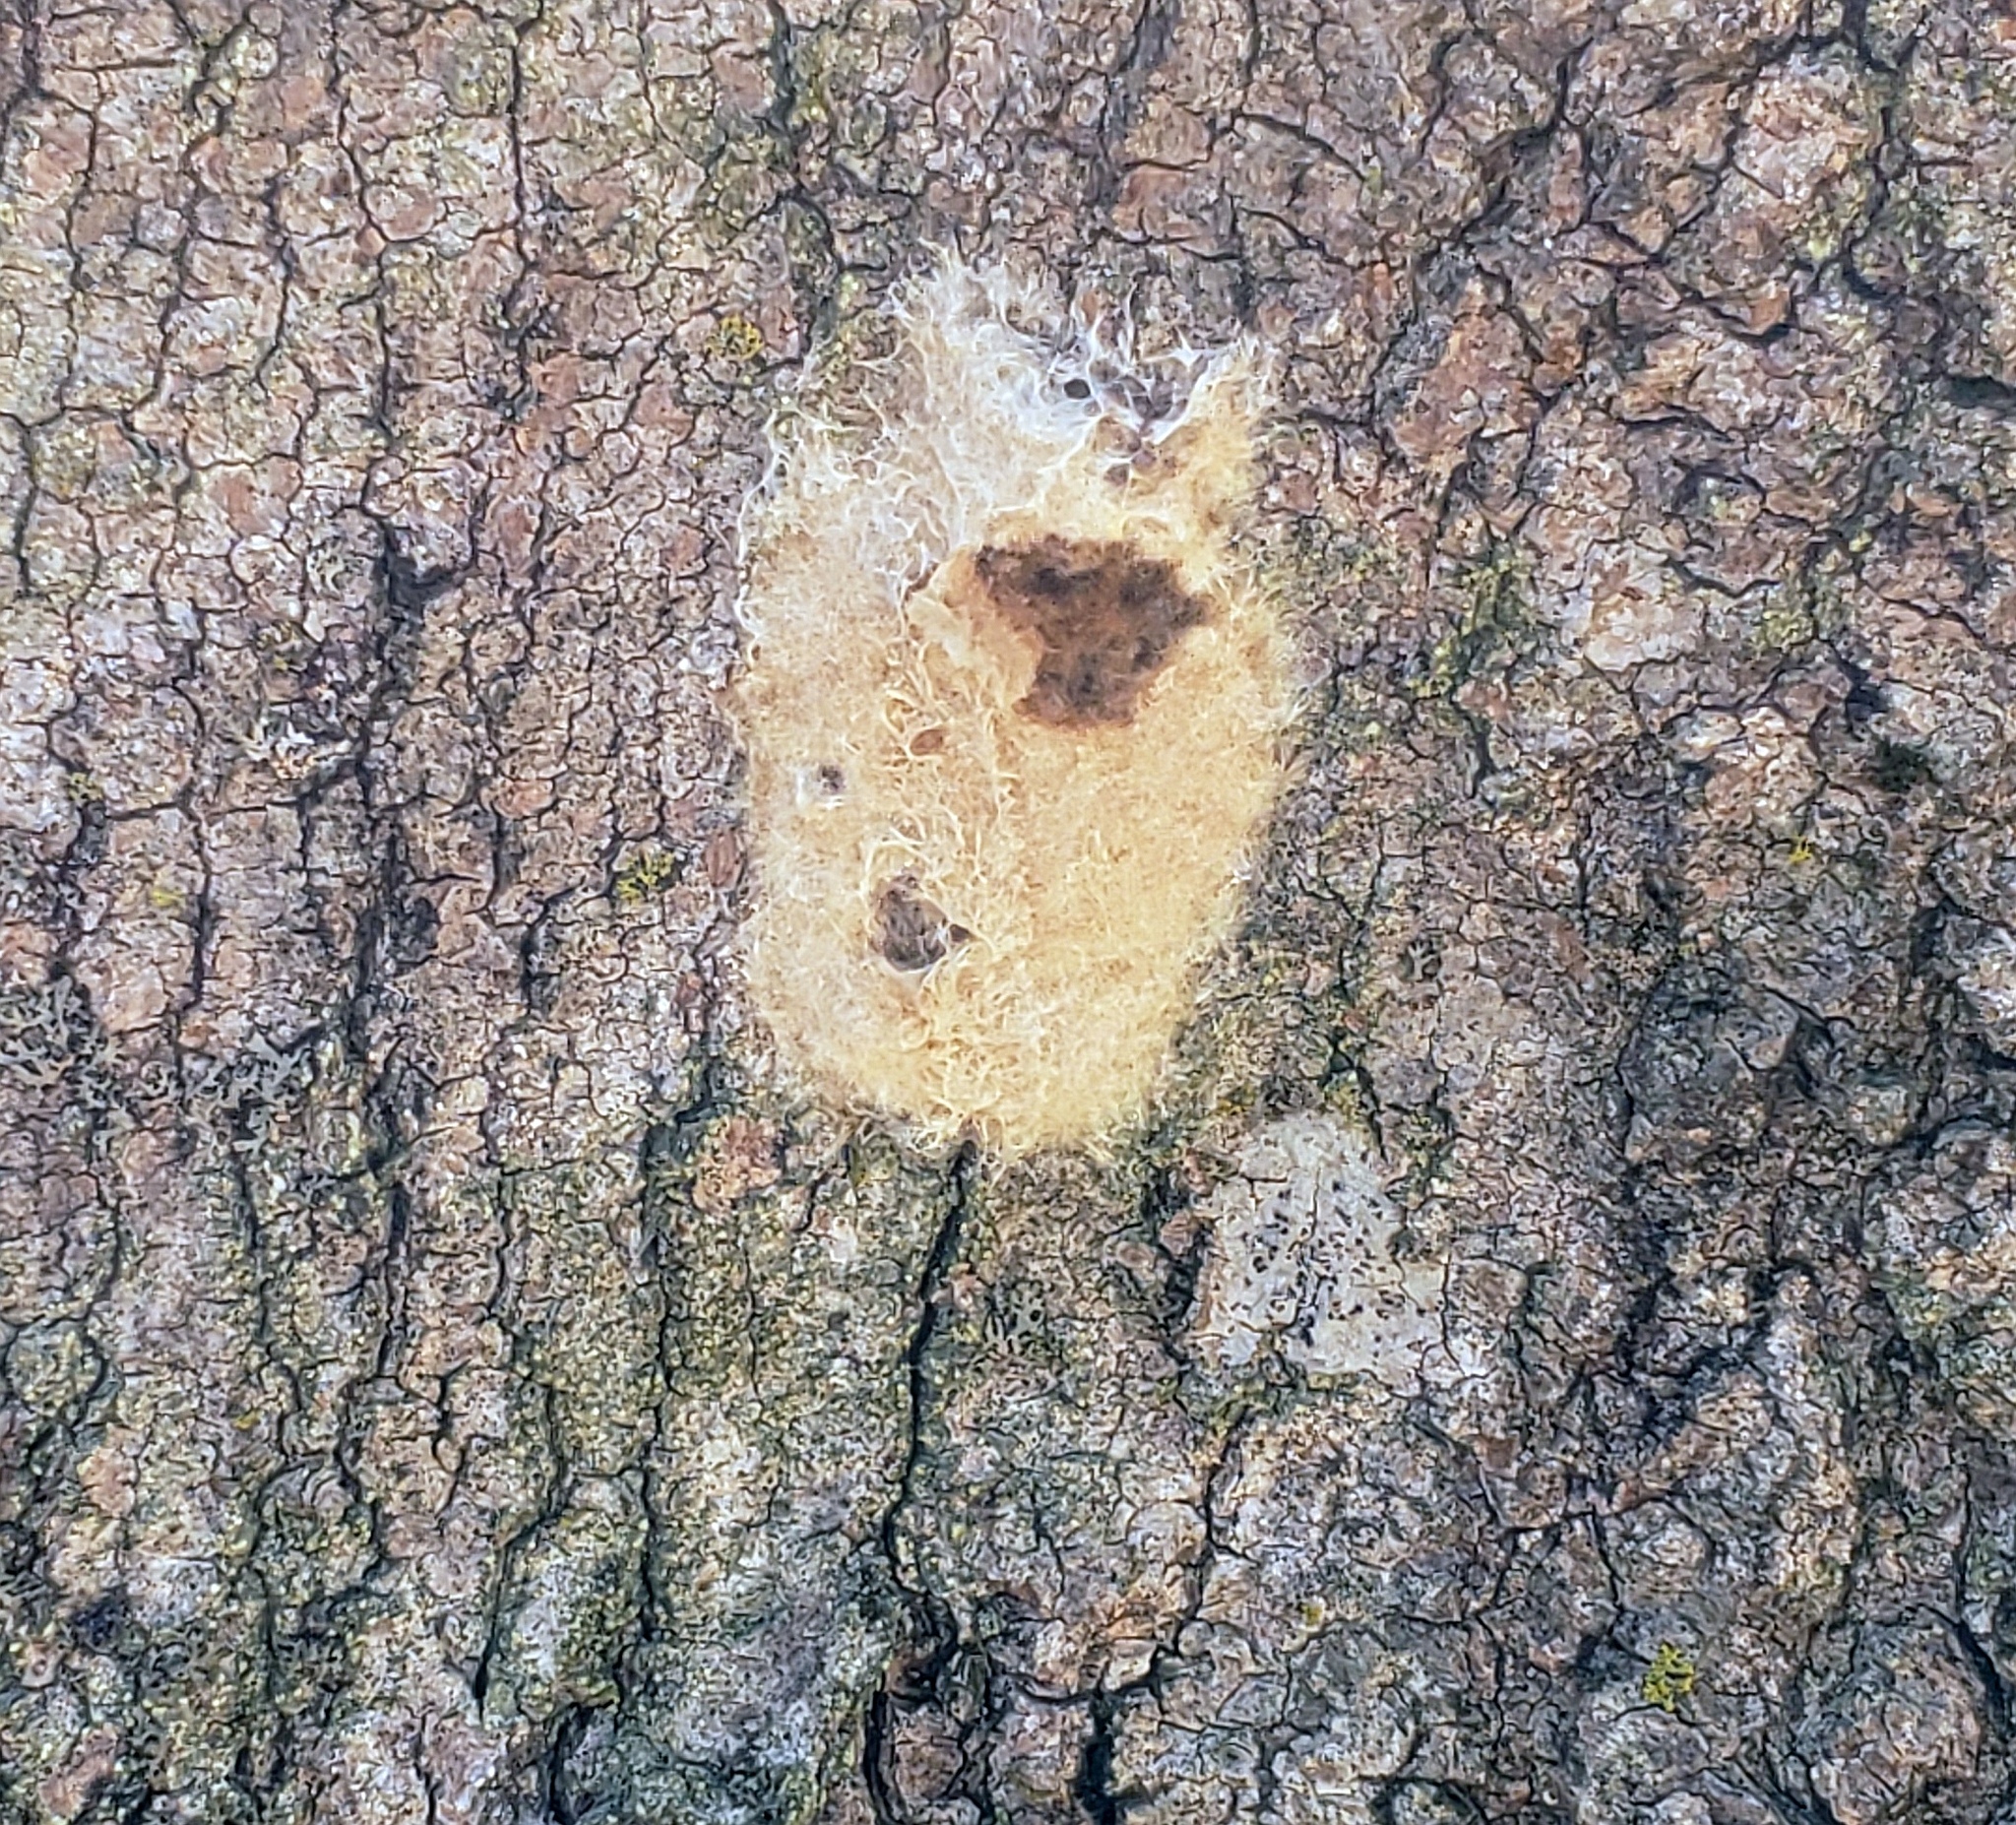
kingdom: Animalia
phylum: Arthropoda
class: Insecta
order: Lepidoptera
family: Erebidae
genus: Lymantria
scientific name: Lymantria dispar
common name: Gypsy moth
